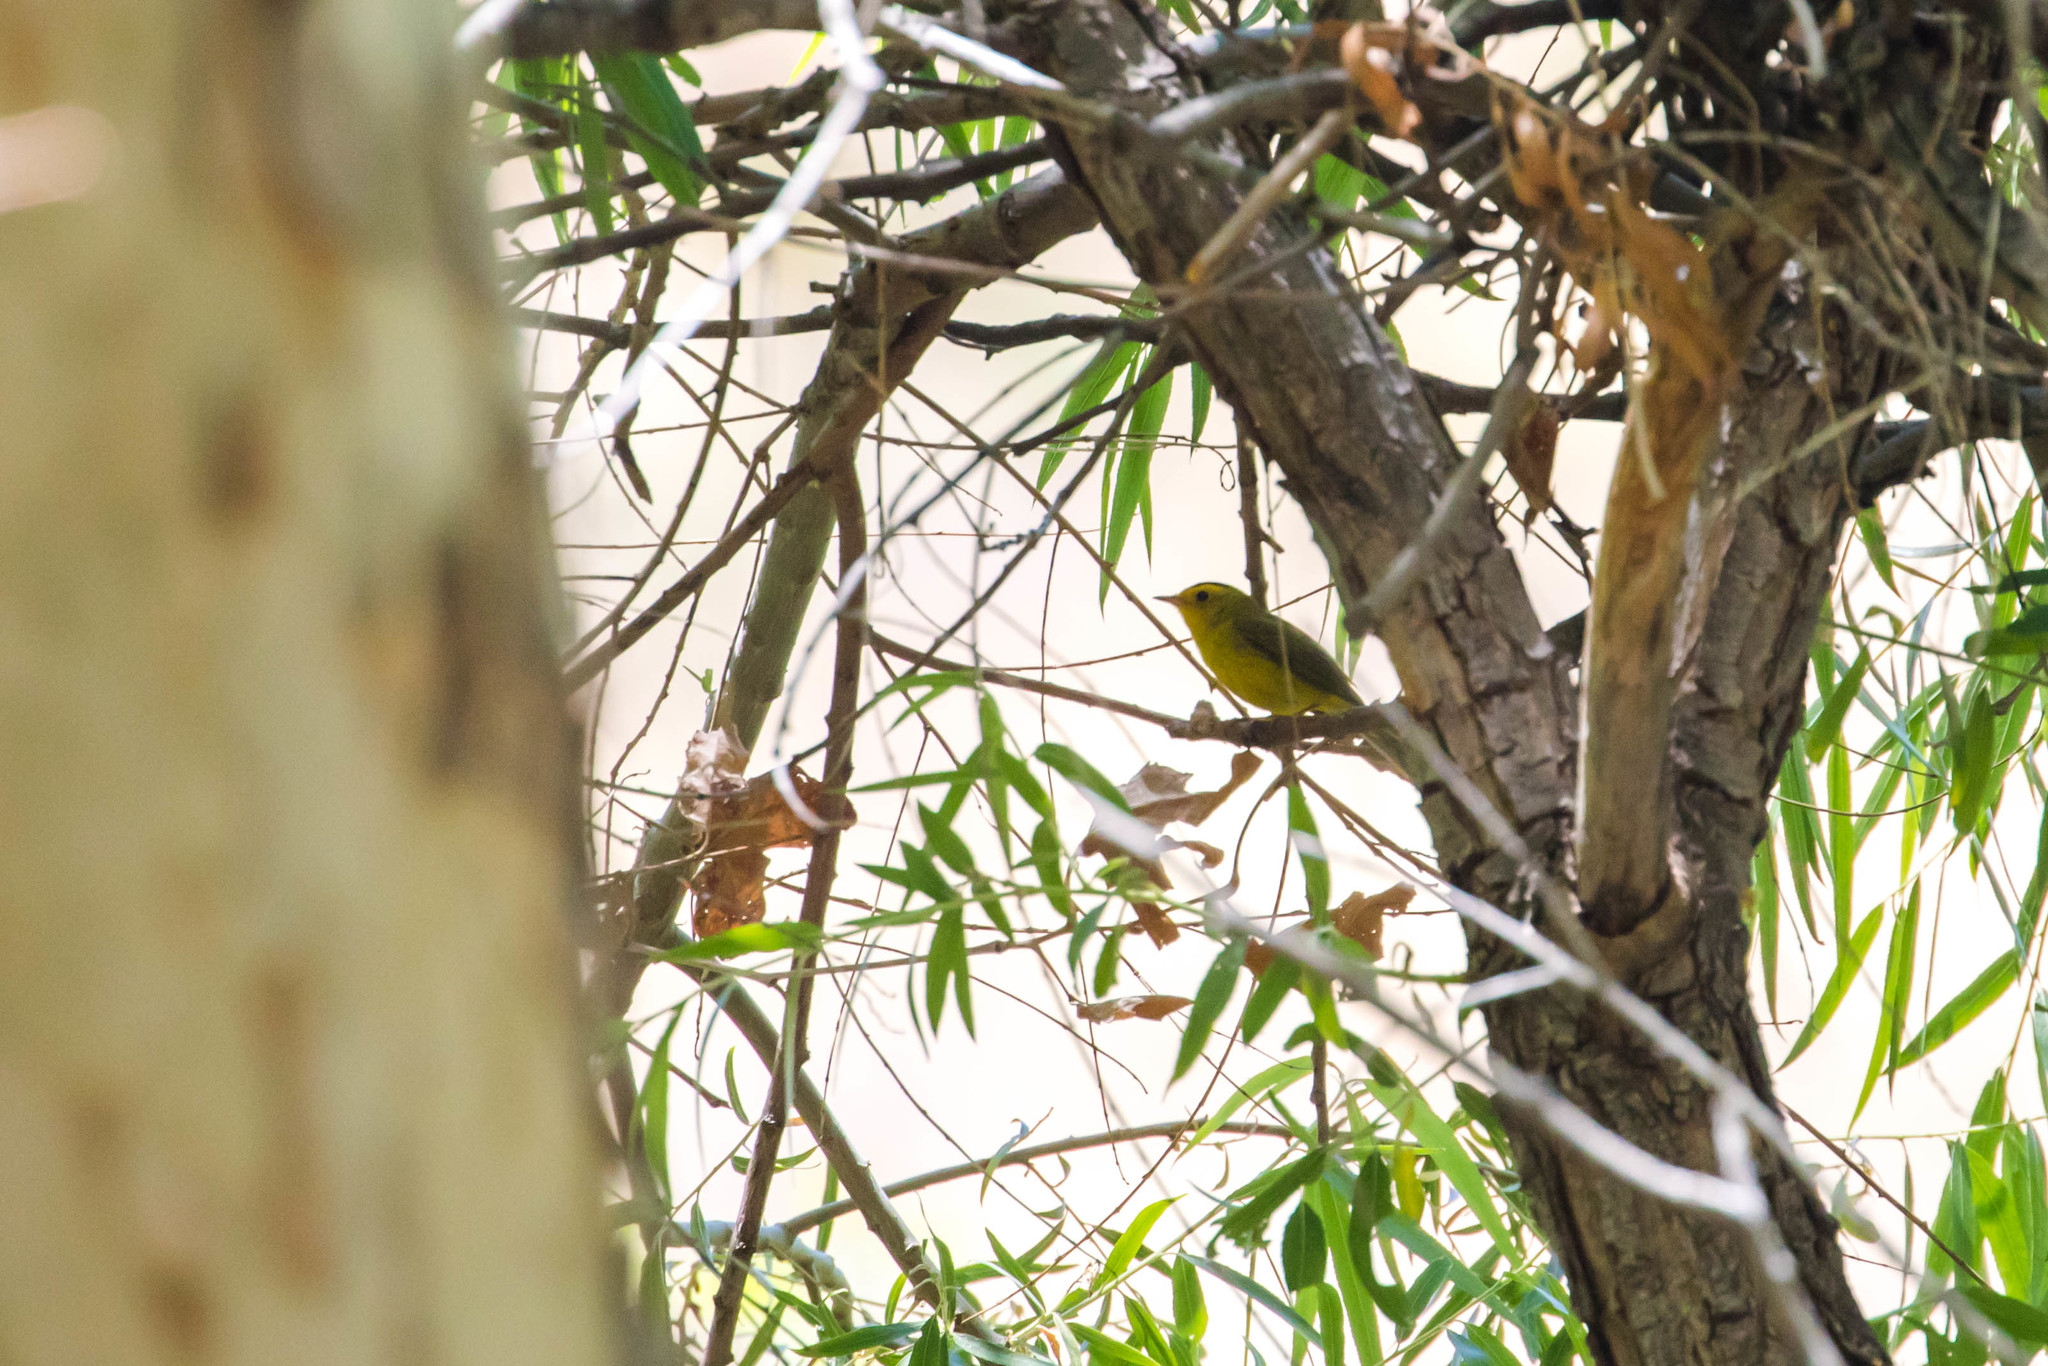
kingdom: Animalia
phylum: Chordata
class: Aves
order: Passeriformes
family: Parulidae
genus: Cardellina
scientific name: Cardellina pusilla
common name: Wilson's warbler
